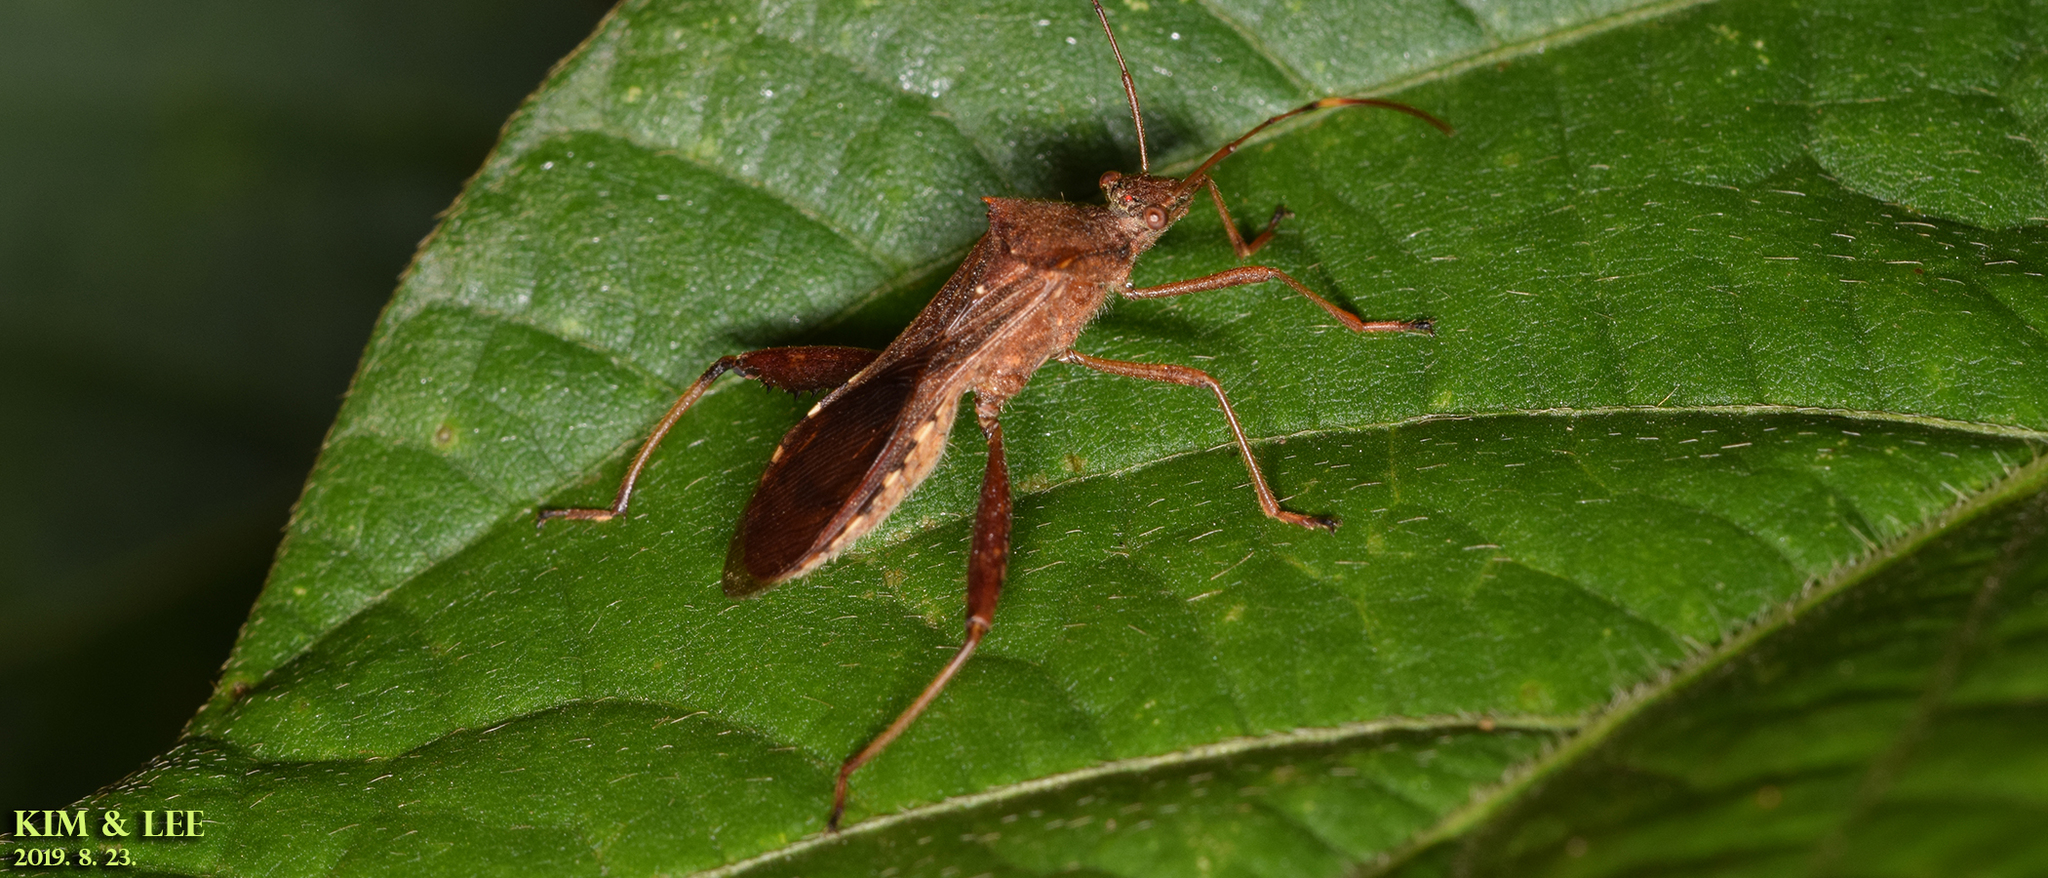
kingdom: Animalia
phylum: Arthropoda
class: Insecta
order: Hemiptera
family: Alydidae
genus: Riptortus
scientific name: Riptortus pedestris
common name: Bean bug
